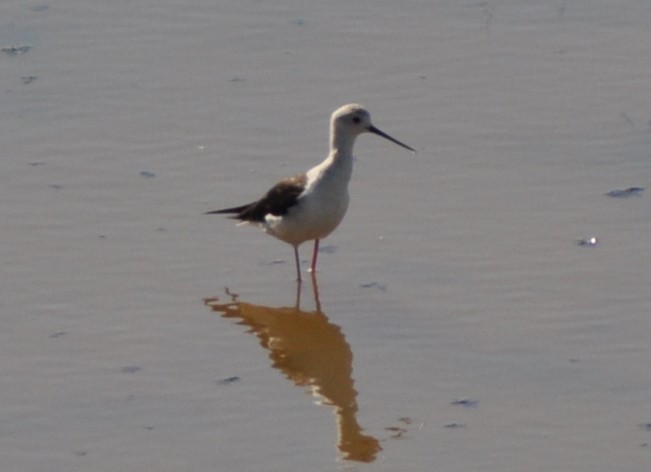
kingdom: Animalia
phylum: Chordata
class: Aves
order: Charadriiformes
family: Recurvirostridae
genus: Himantopus
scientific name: Himantopus himantopus
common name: Black-winged stilt
